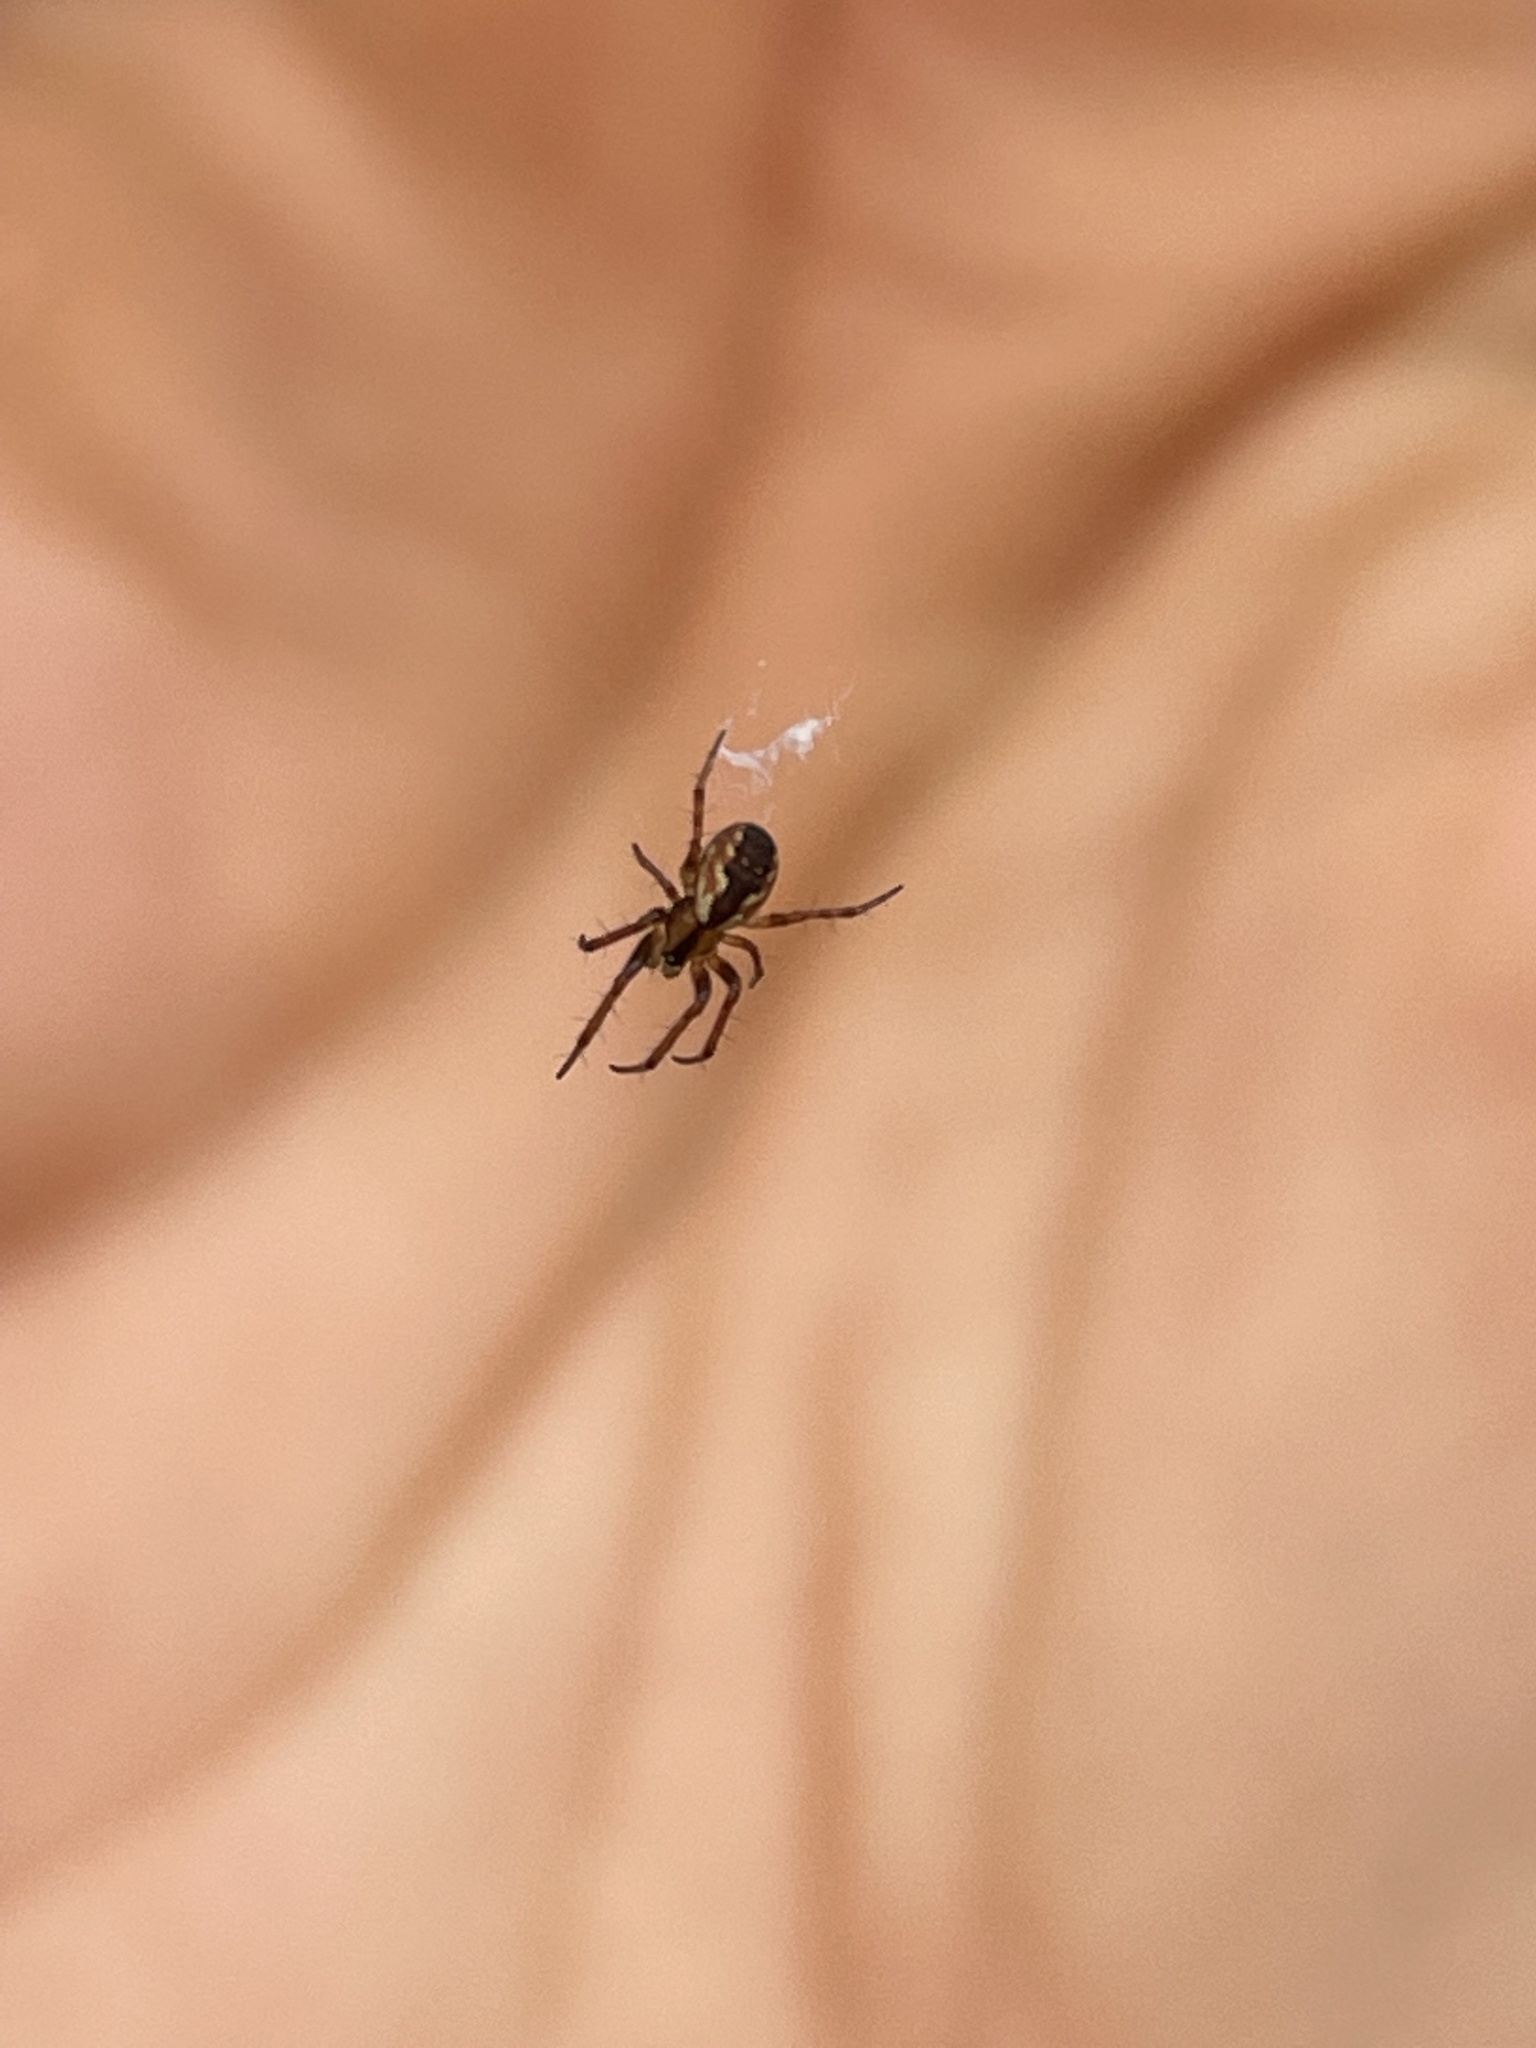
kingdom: Animalia
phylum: Arthropoda
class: Arachnida
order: Araneae
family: Araneidae
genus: Mangora
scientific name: Mangora placida
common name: Tuft-legged orbweaver
